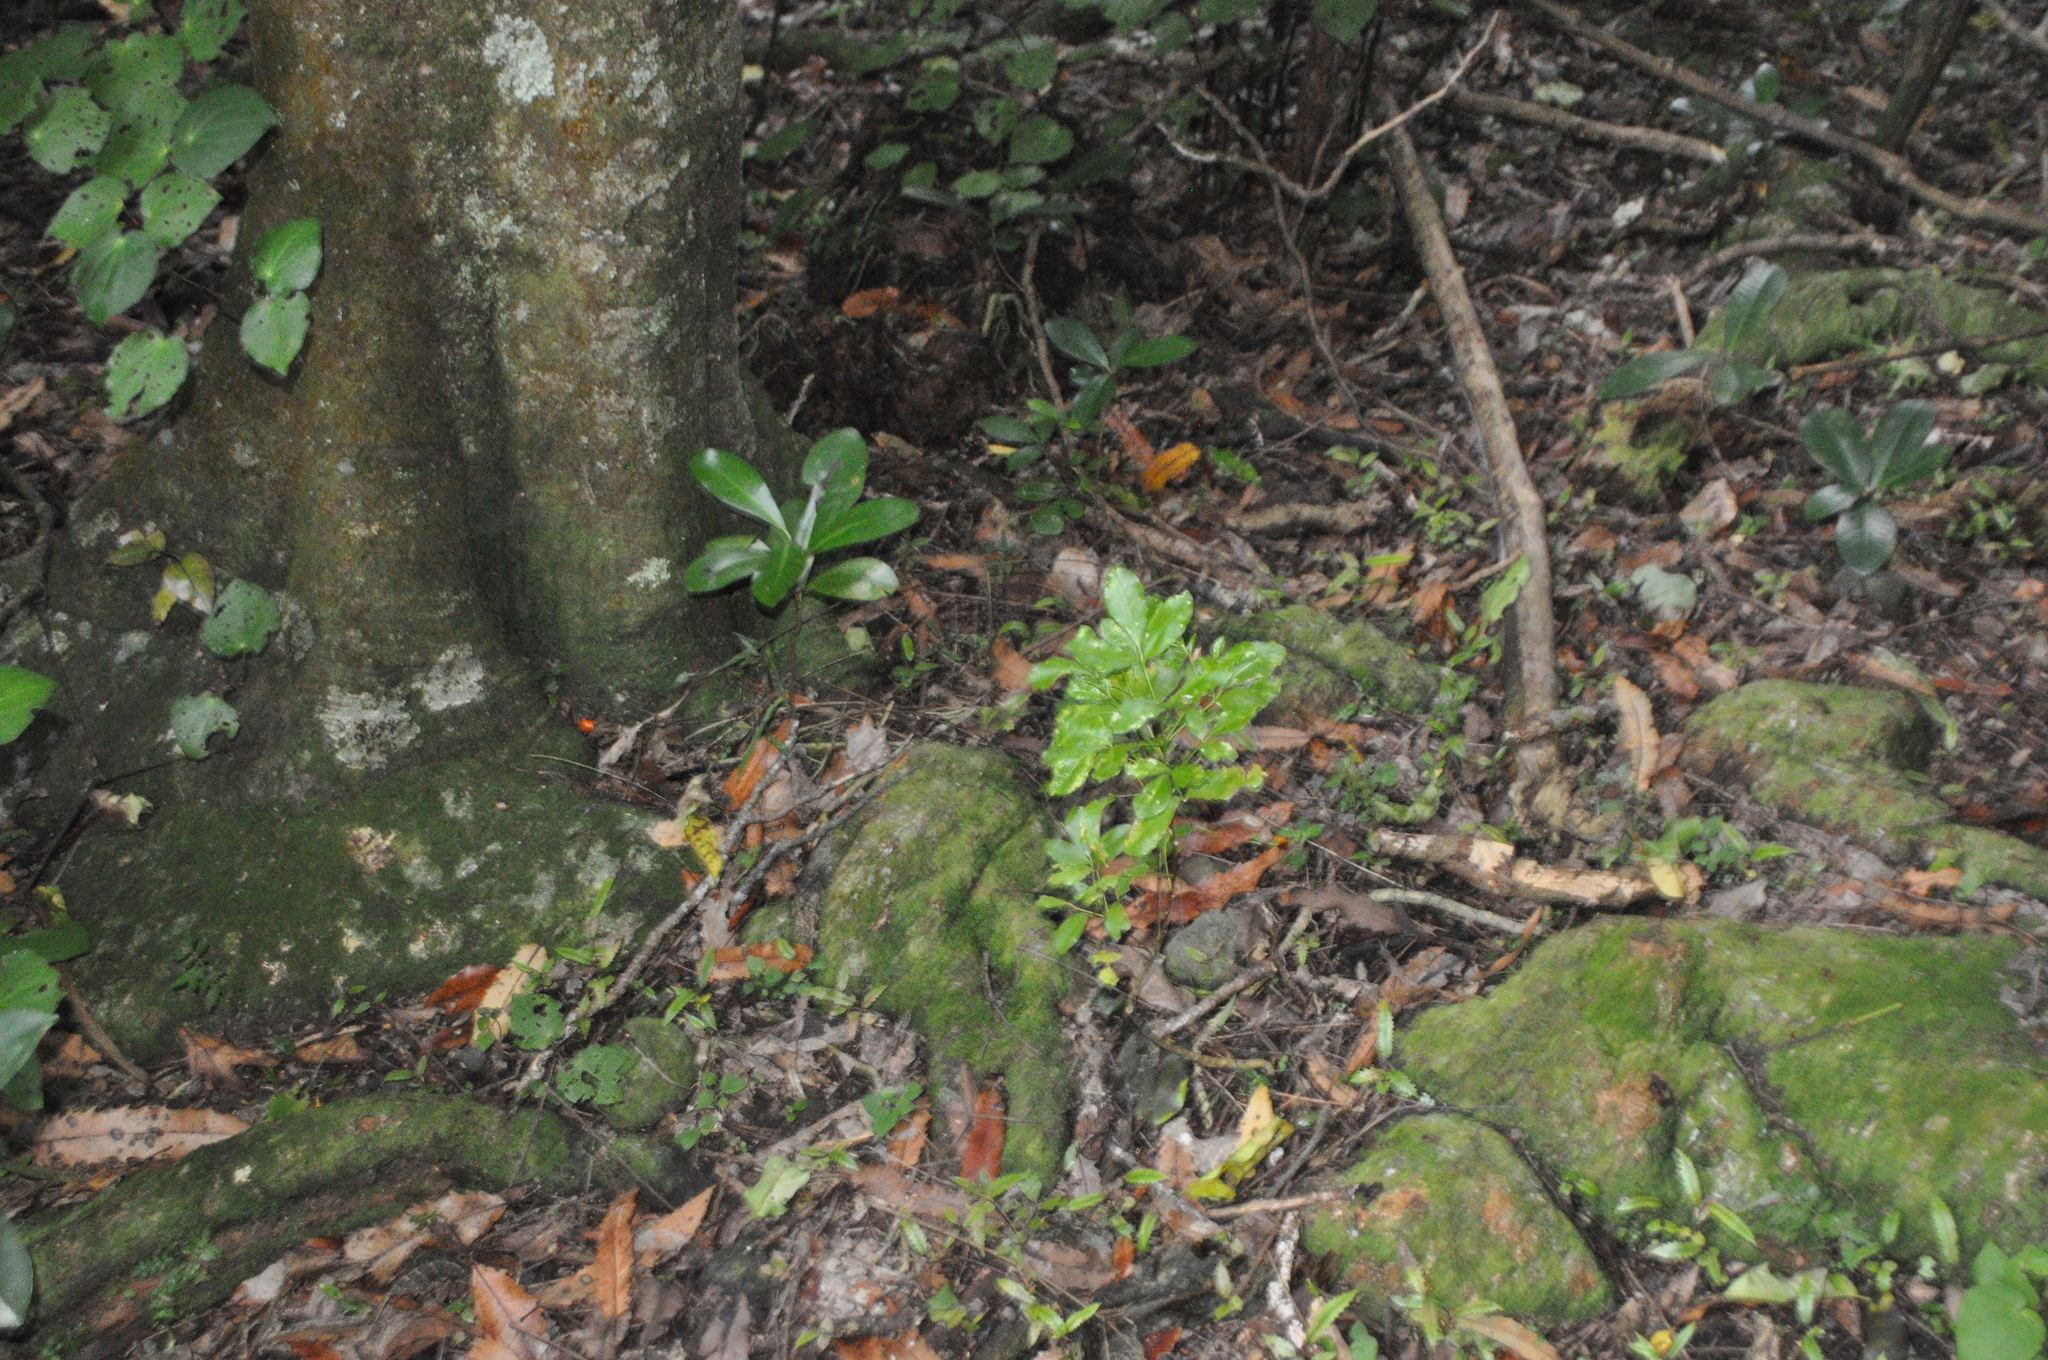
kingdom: Plantae
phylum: Tracheophyta
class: Magnoliopsida
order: Sapindales
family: Rutaceae
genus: Melicope
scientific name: Melicope ternata
